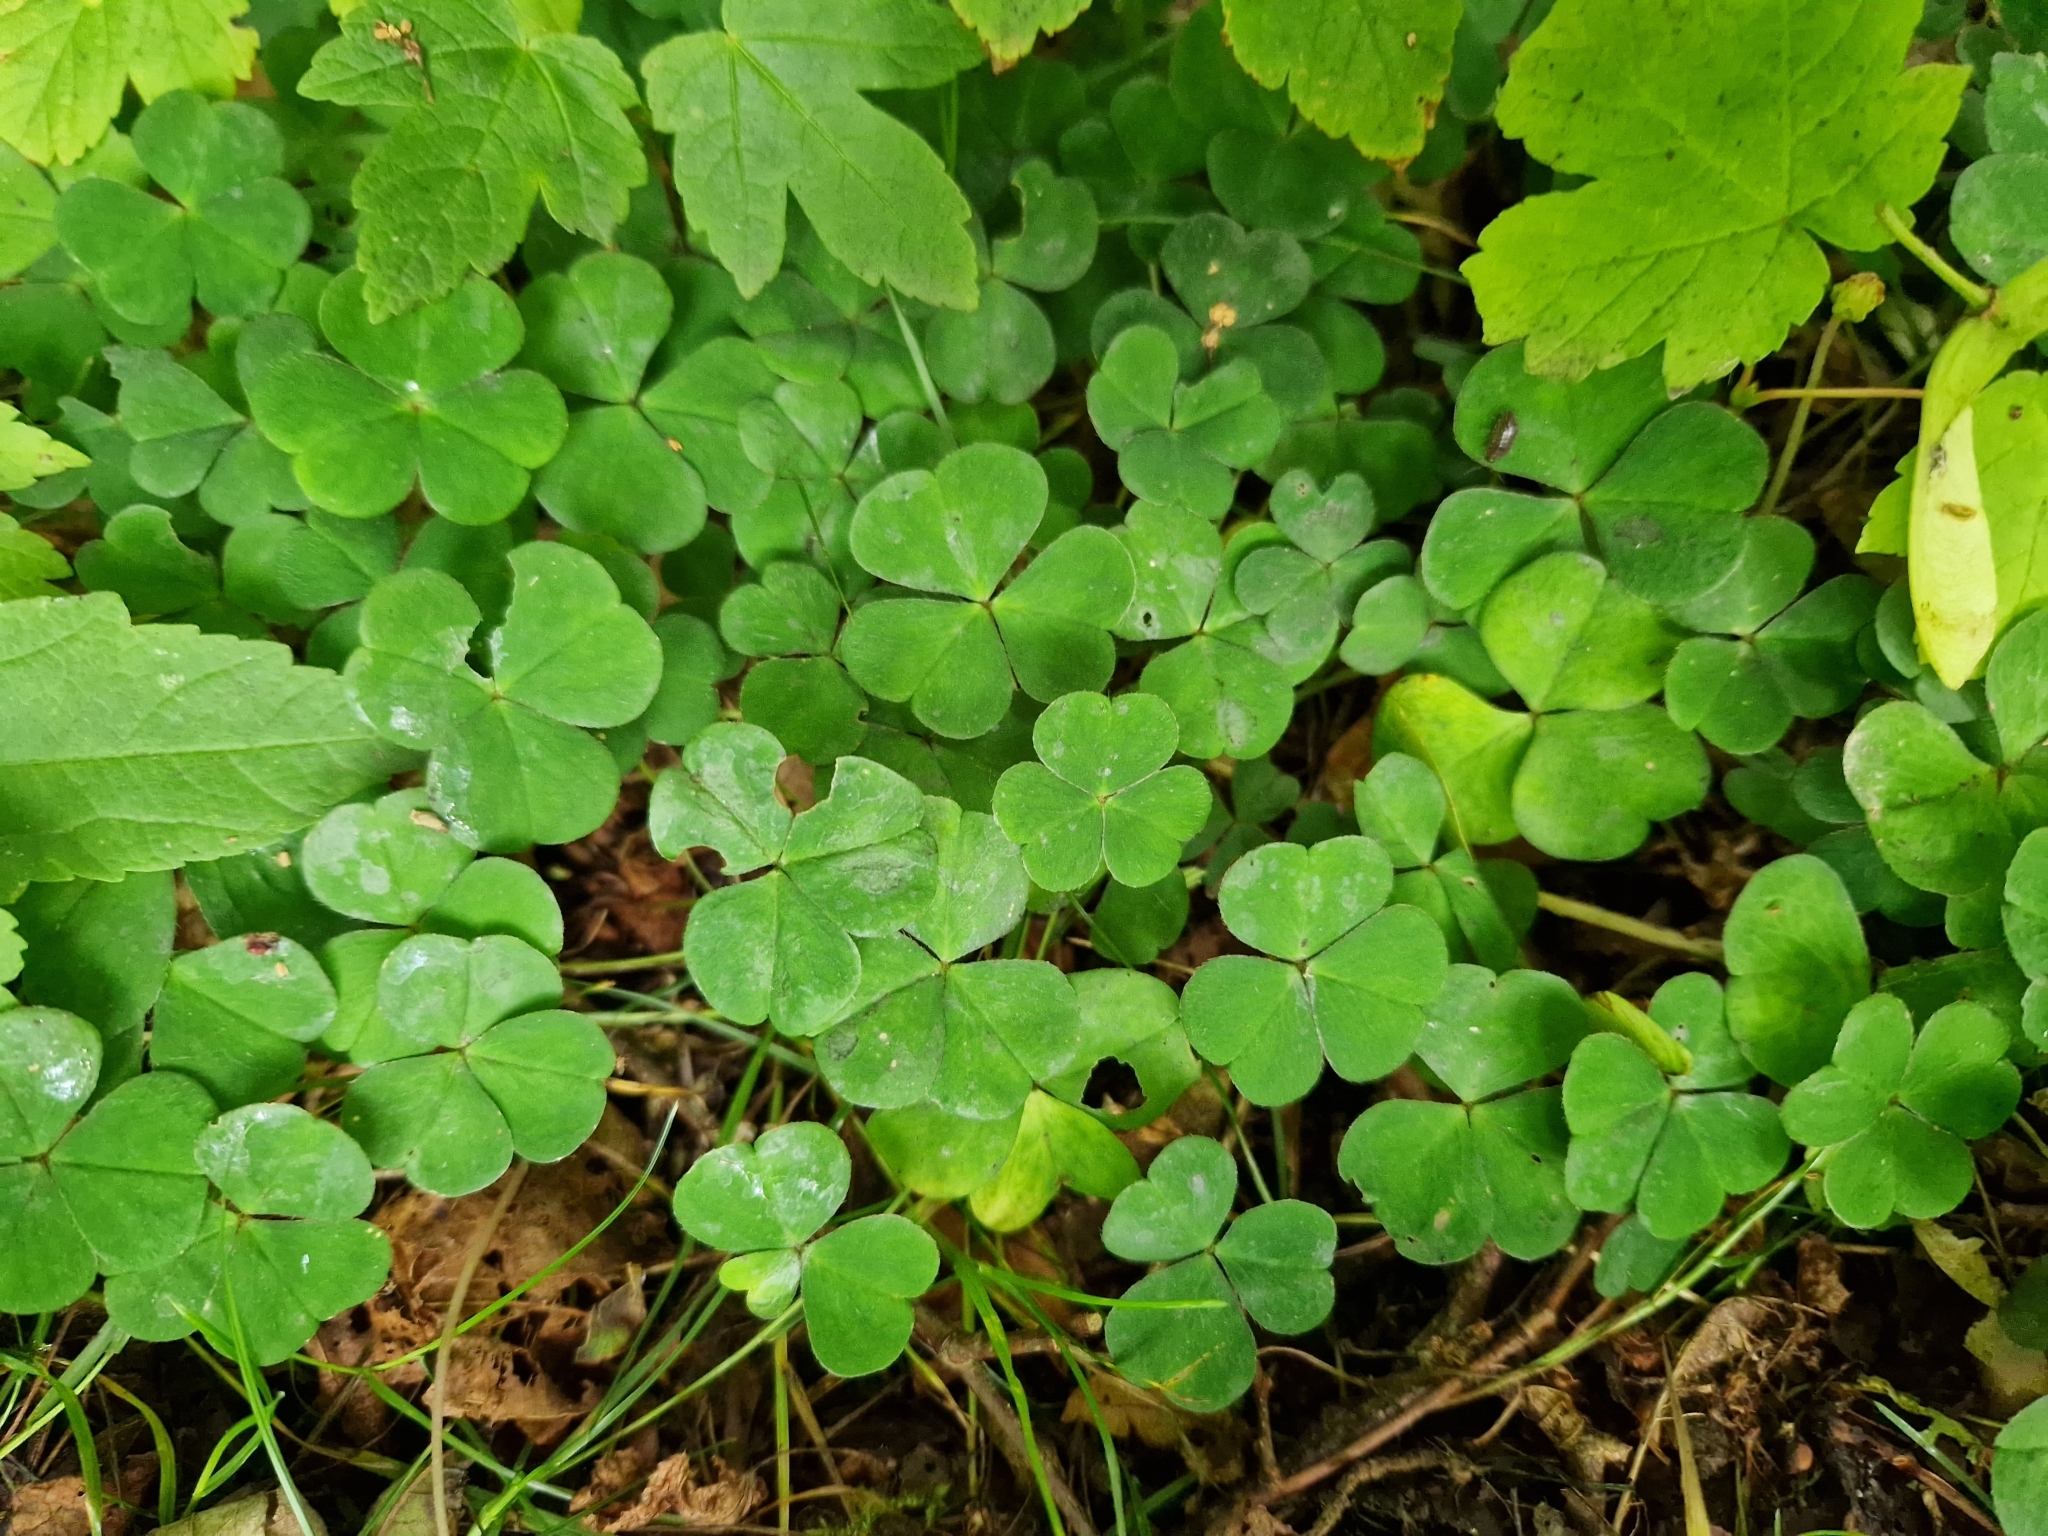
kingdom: Plantae
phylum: Tracheophyta
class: Magnoliopsida
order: Oxalidales
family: Oxalidaceae
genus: Oxalis
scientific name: Oxalis acetosella
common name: Wood-sorrel
